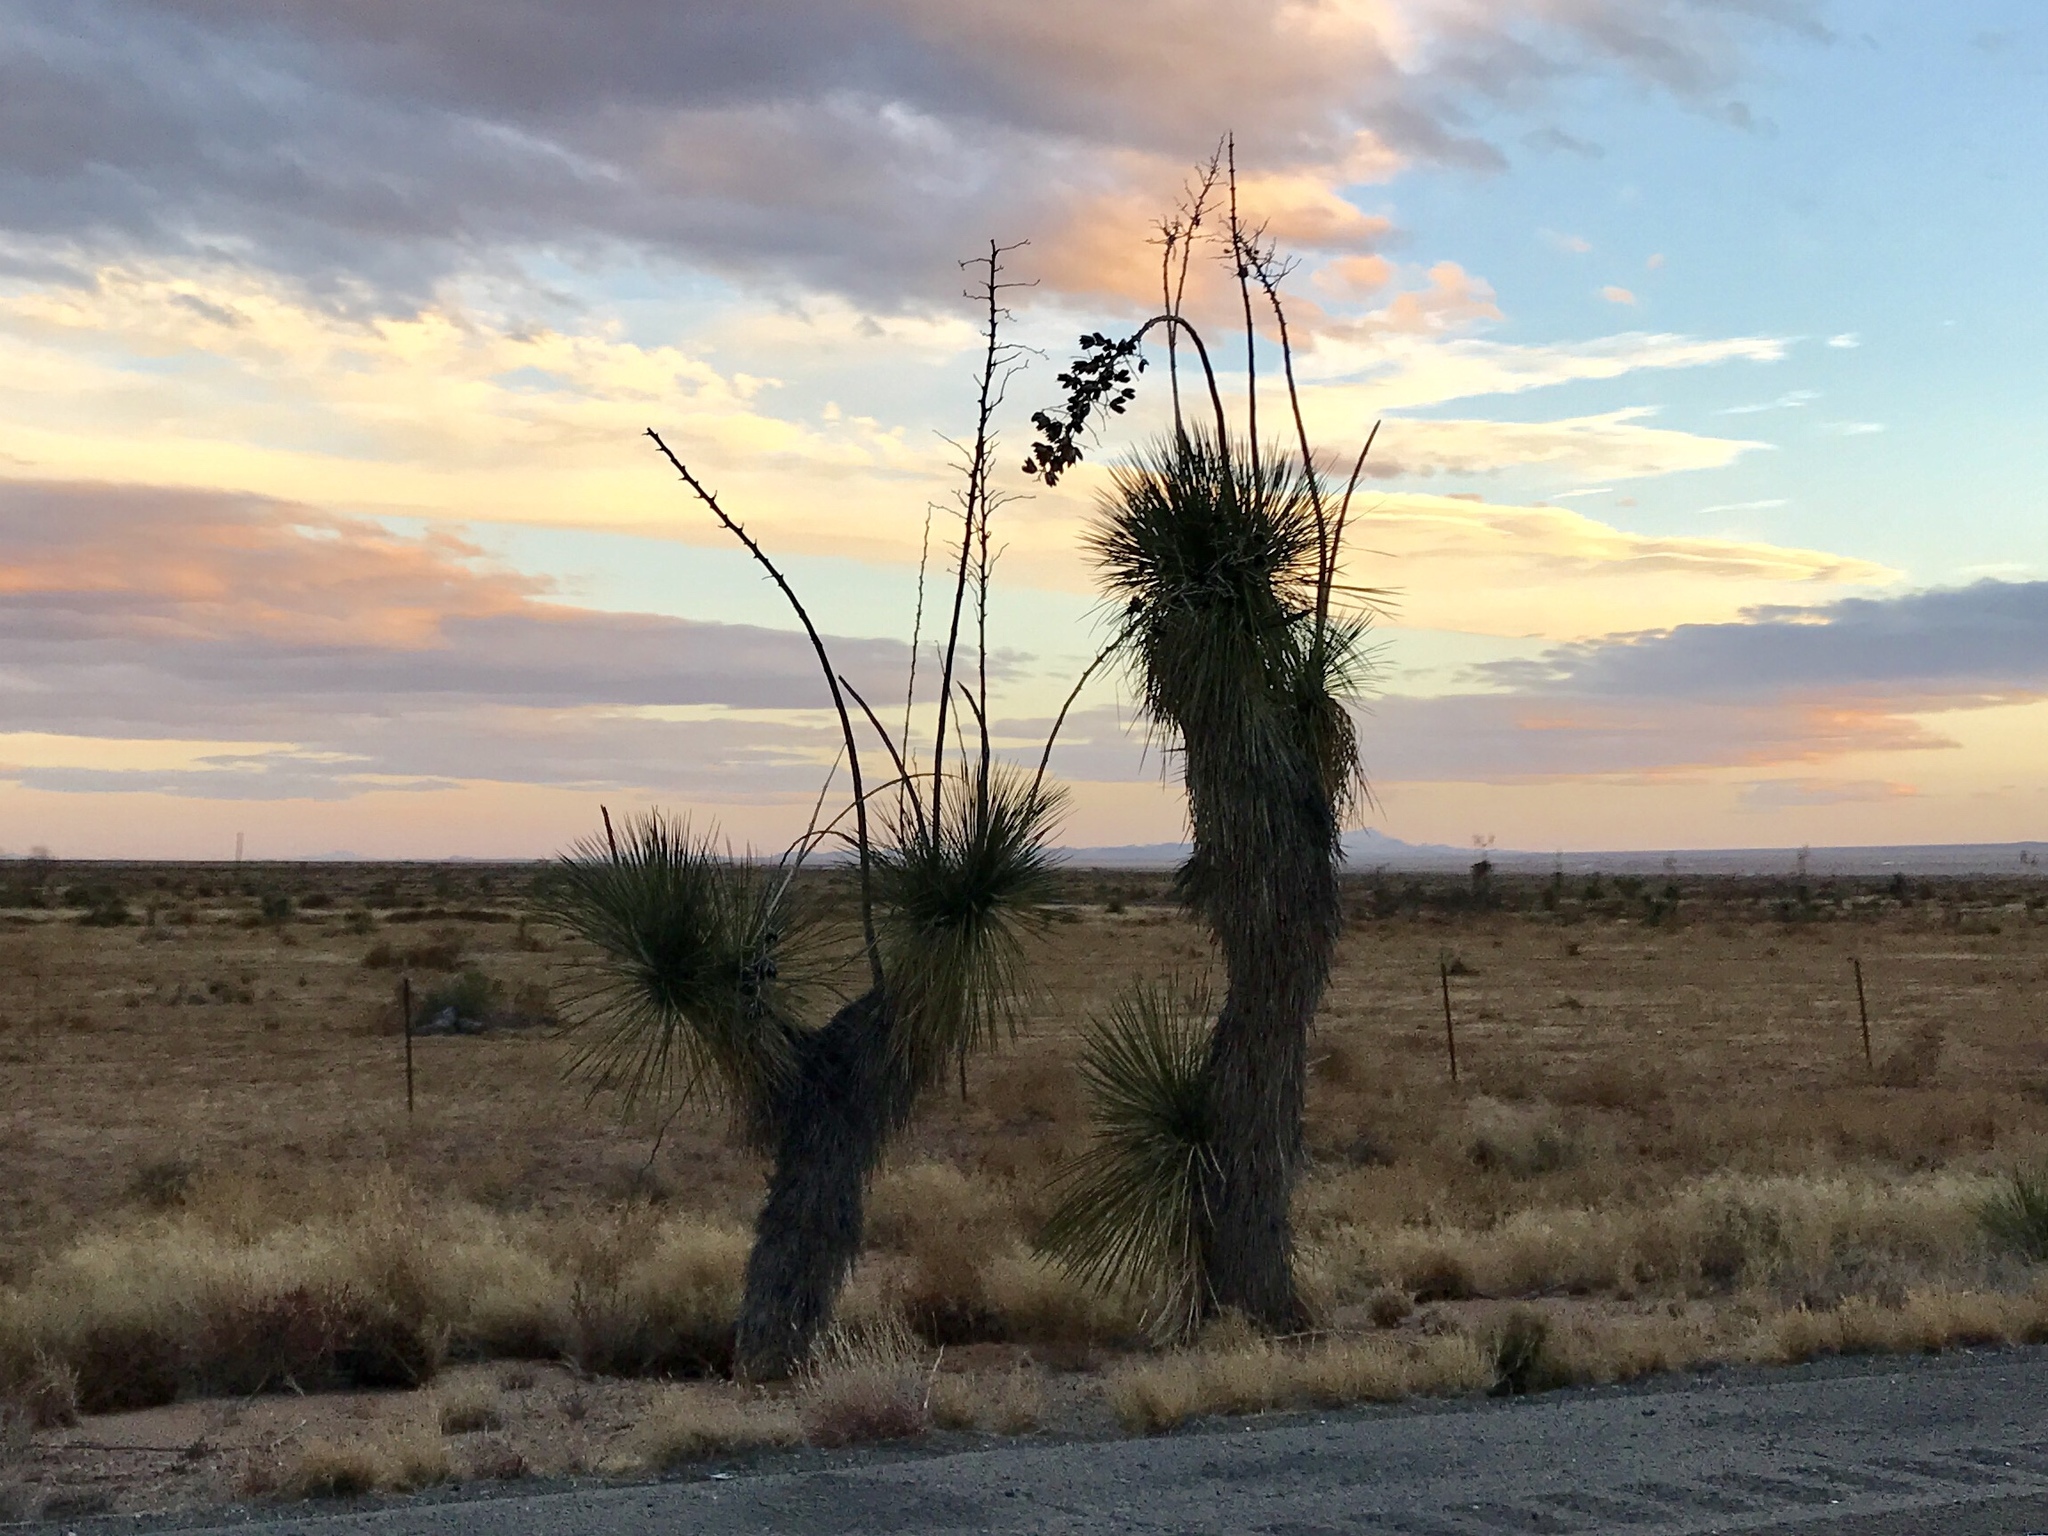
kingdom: Plantae
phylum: Tracheophyta
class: Liliopsida
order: Asparagales
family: Asparagaceae
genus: Yucca
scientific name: Yucca elata
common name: Palmella
